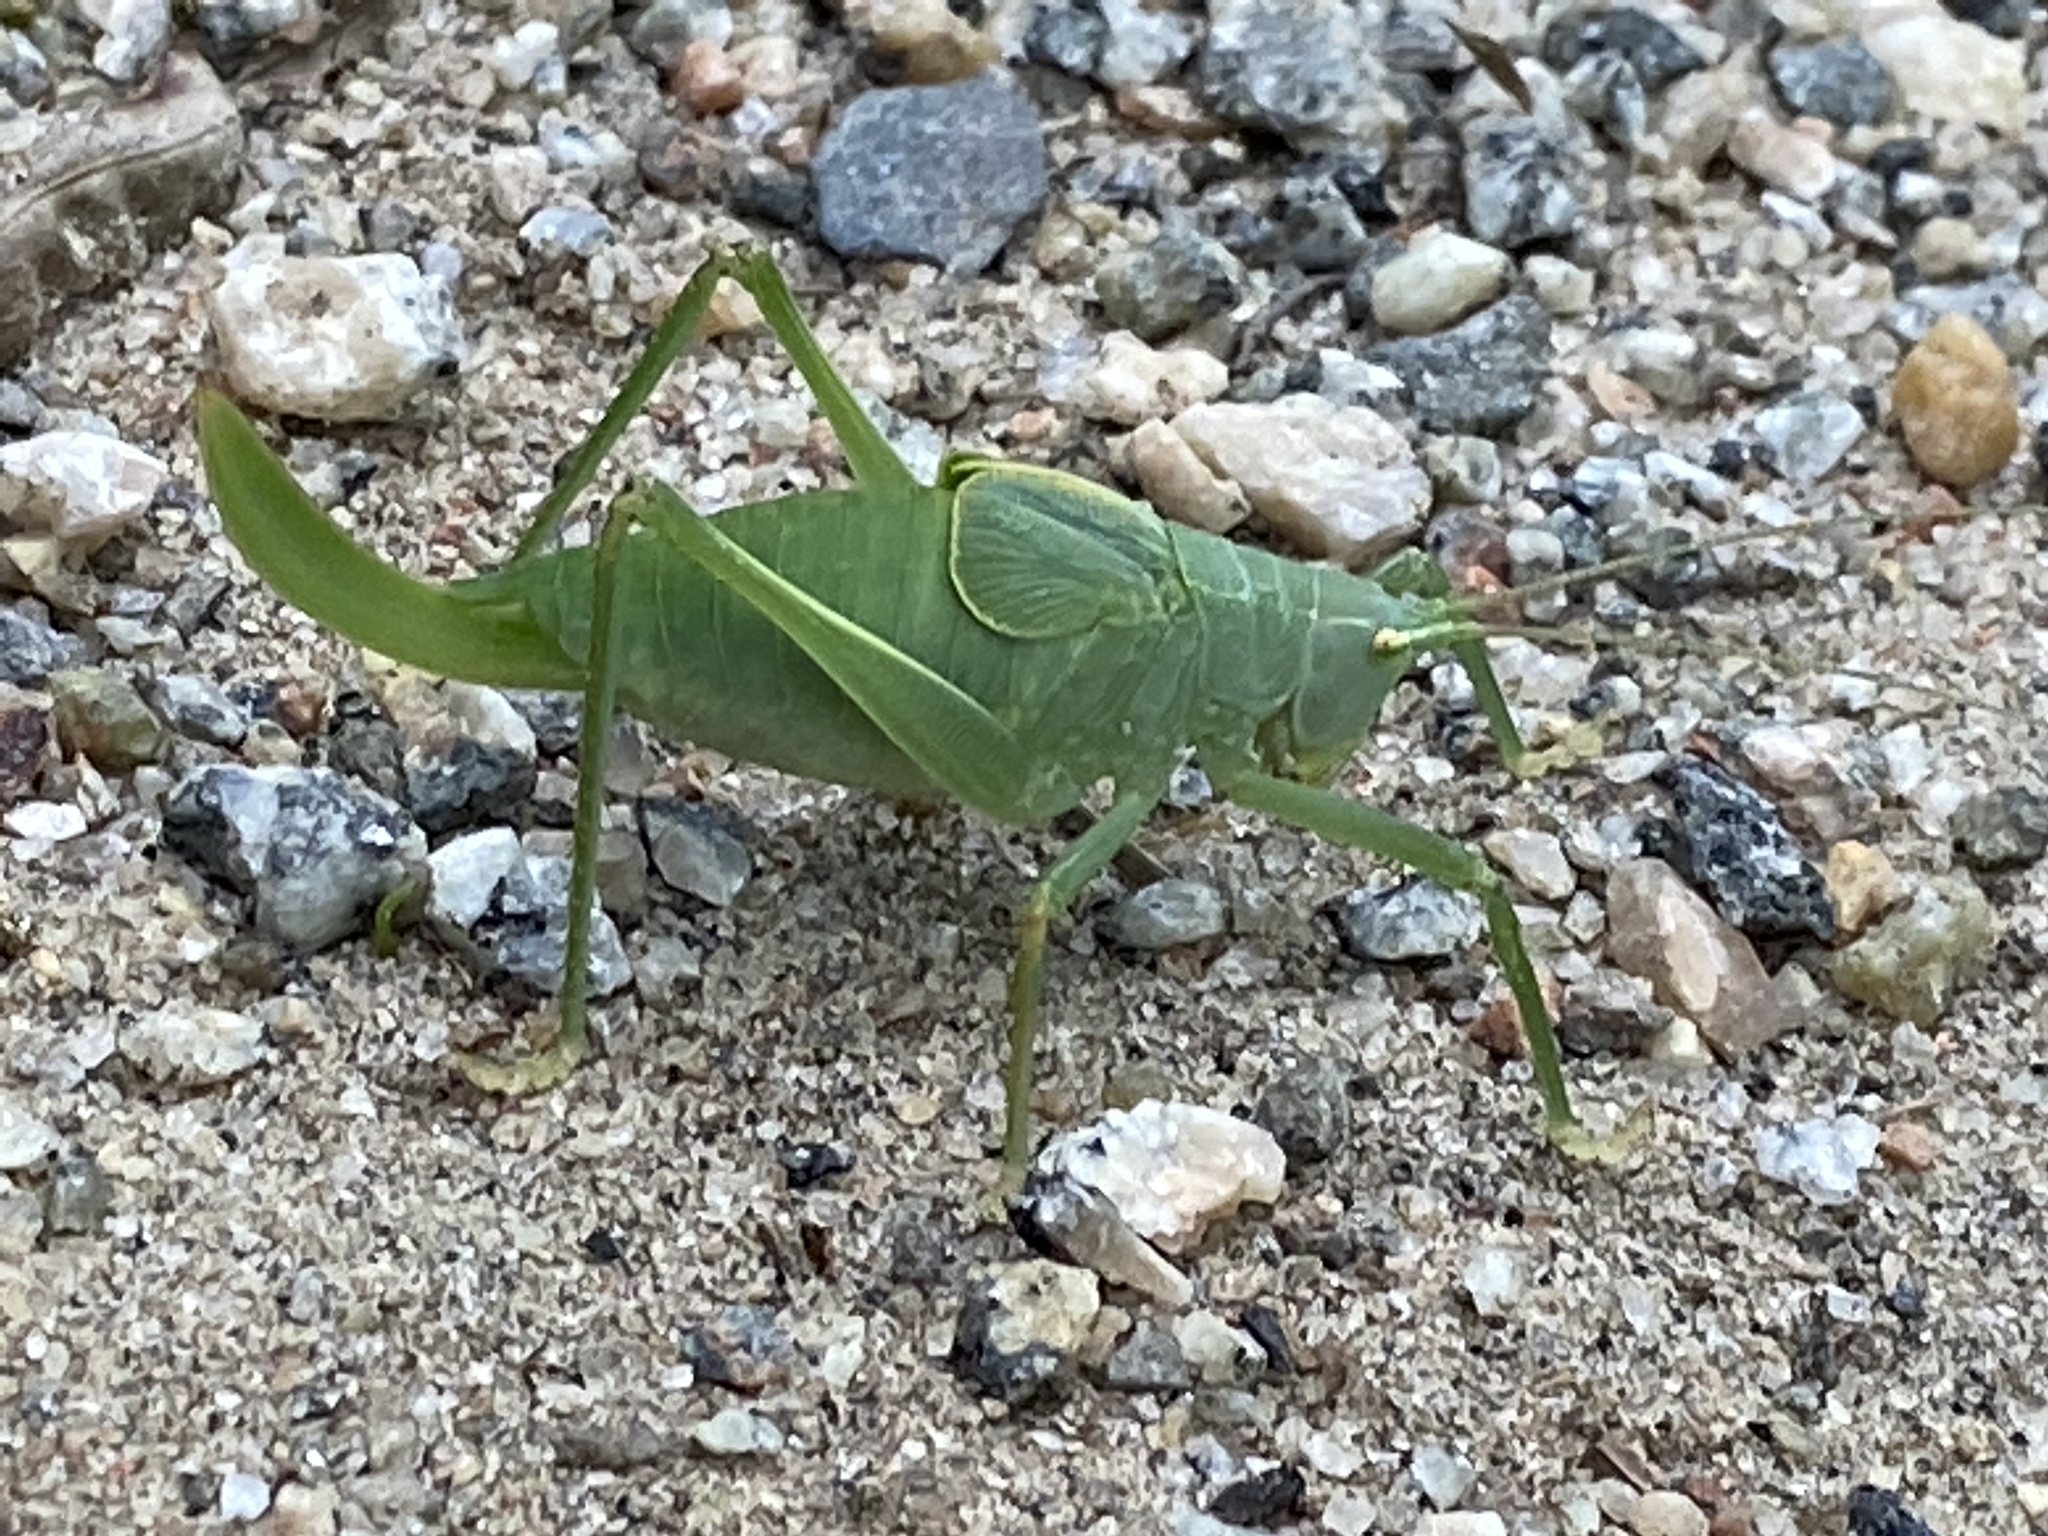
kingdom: Animalia
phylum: Arthropoda
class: Insecta
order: Orthoptera
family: Tettigoniidae
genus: Pterophylla
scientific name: Pterophylla camellifolia
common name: Common true katydid
